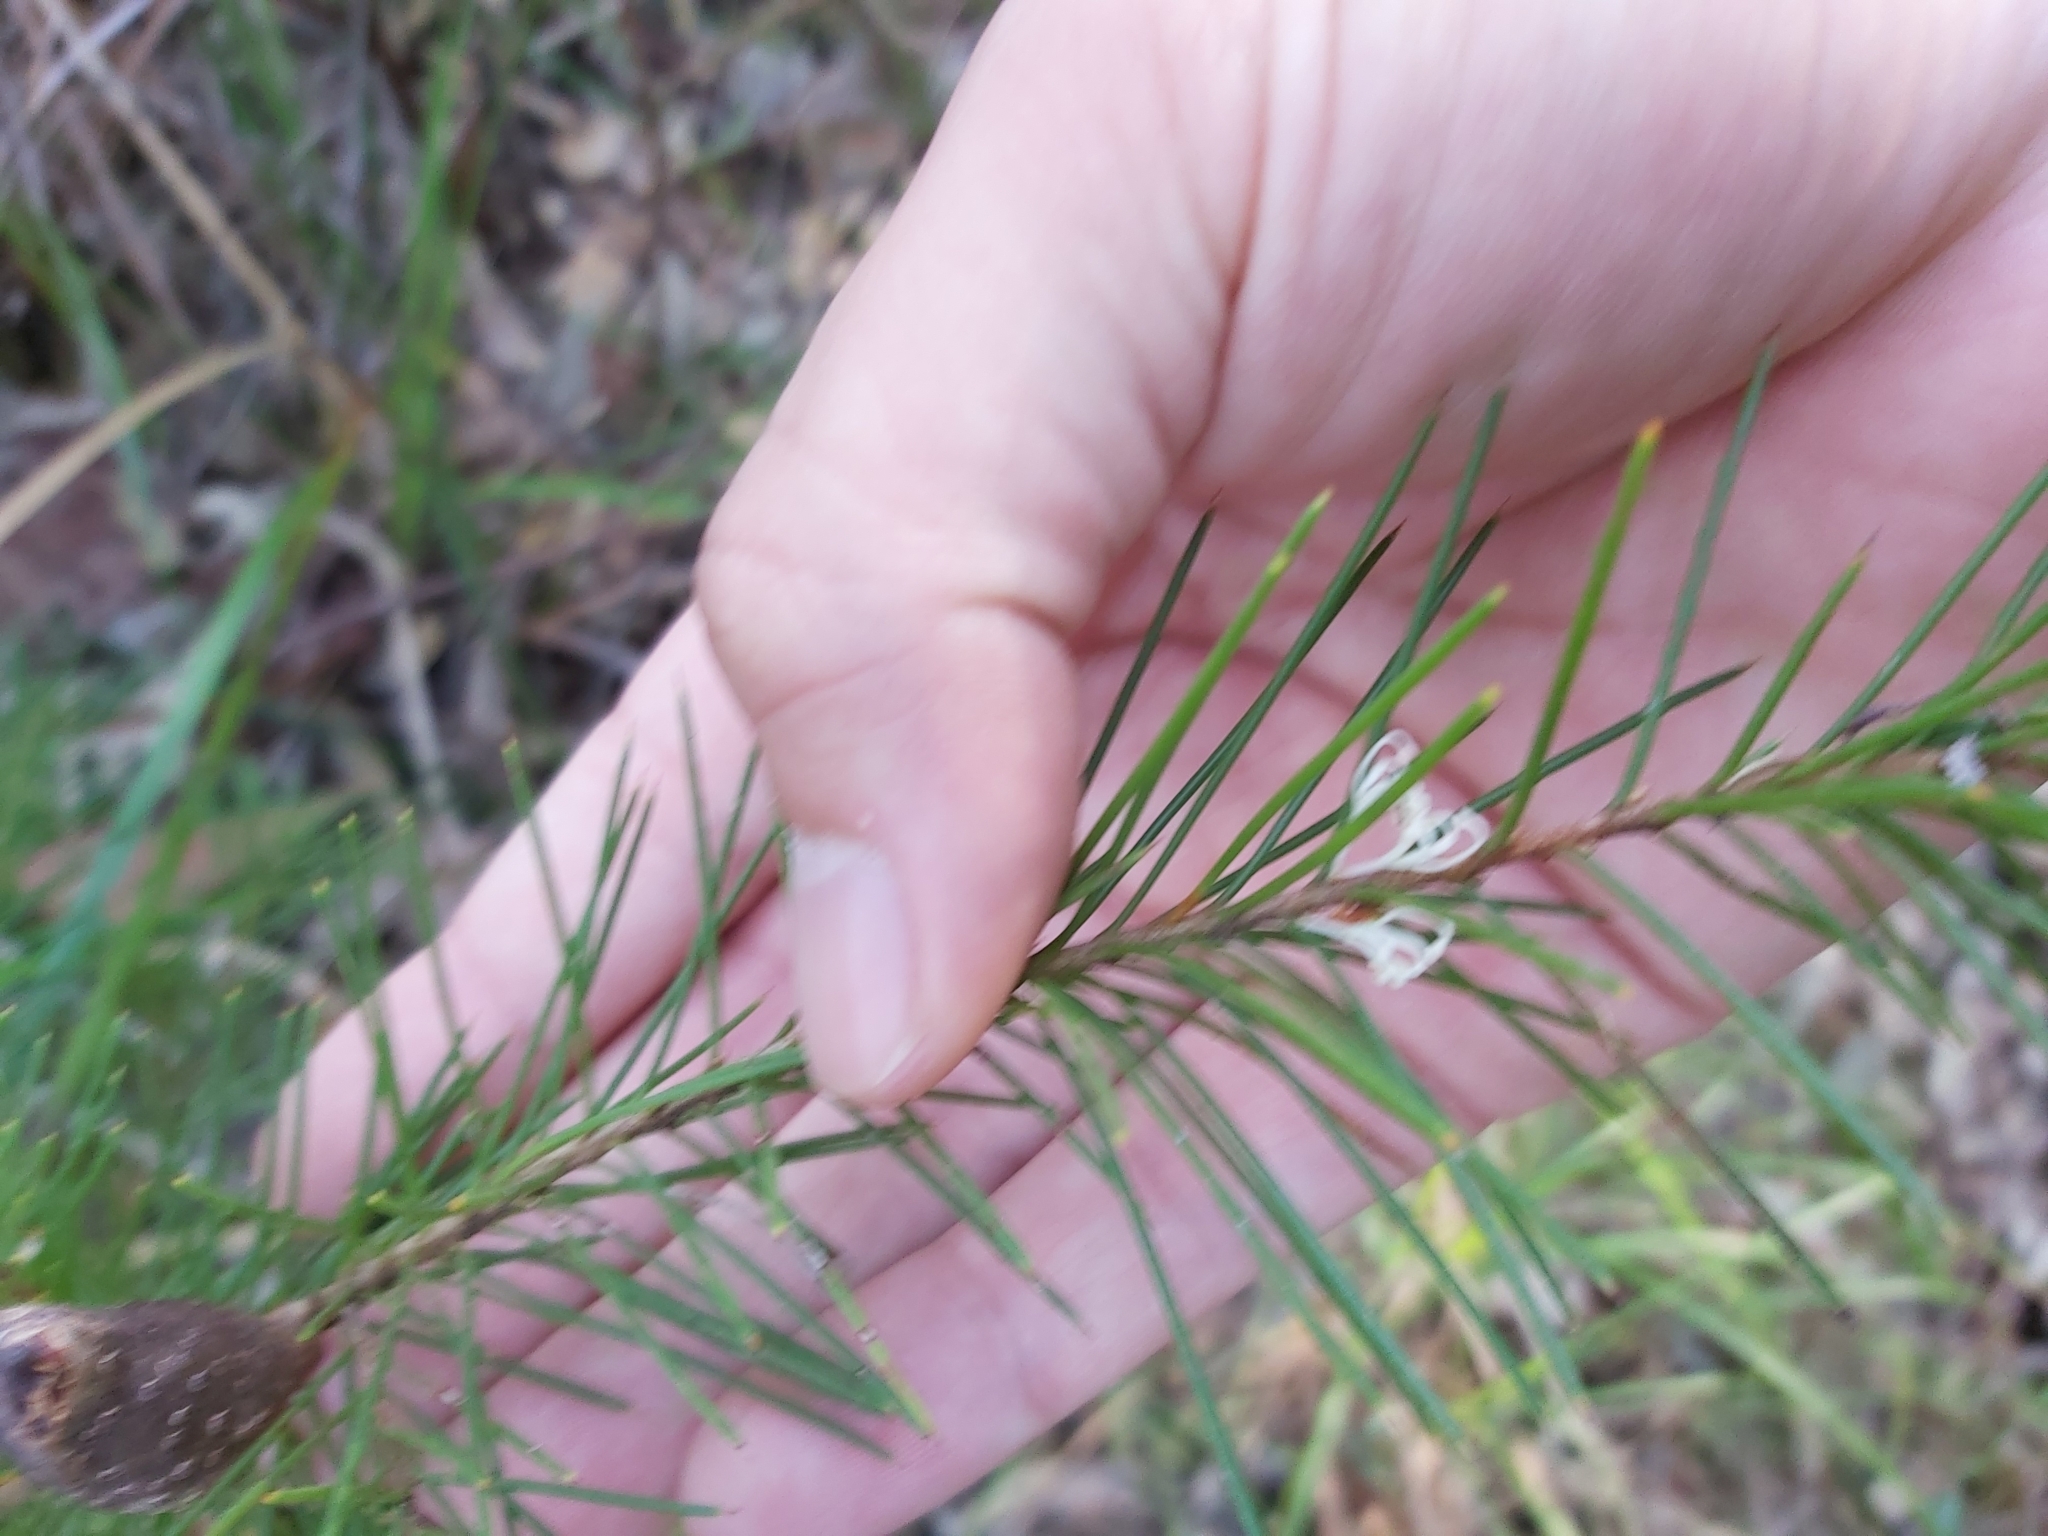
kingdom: Plantae
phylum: Tracheophyta
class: Magnoliopsida
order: Proteales
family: Proteaceae
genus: Hakea
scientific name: Hakea sericea
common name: Needle bush
